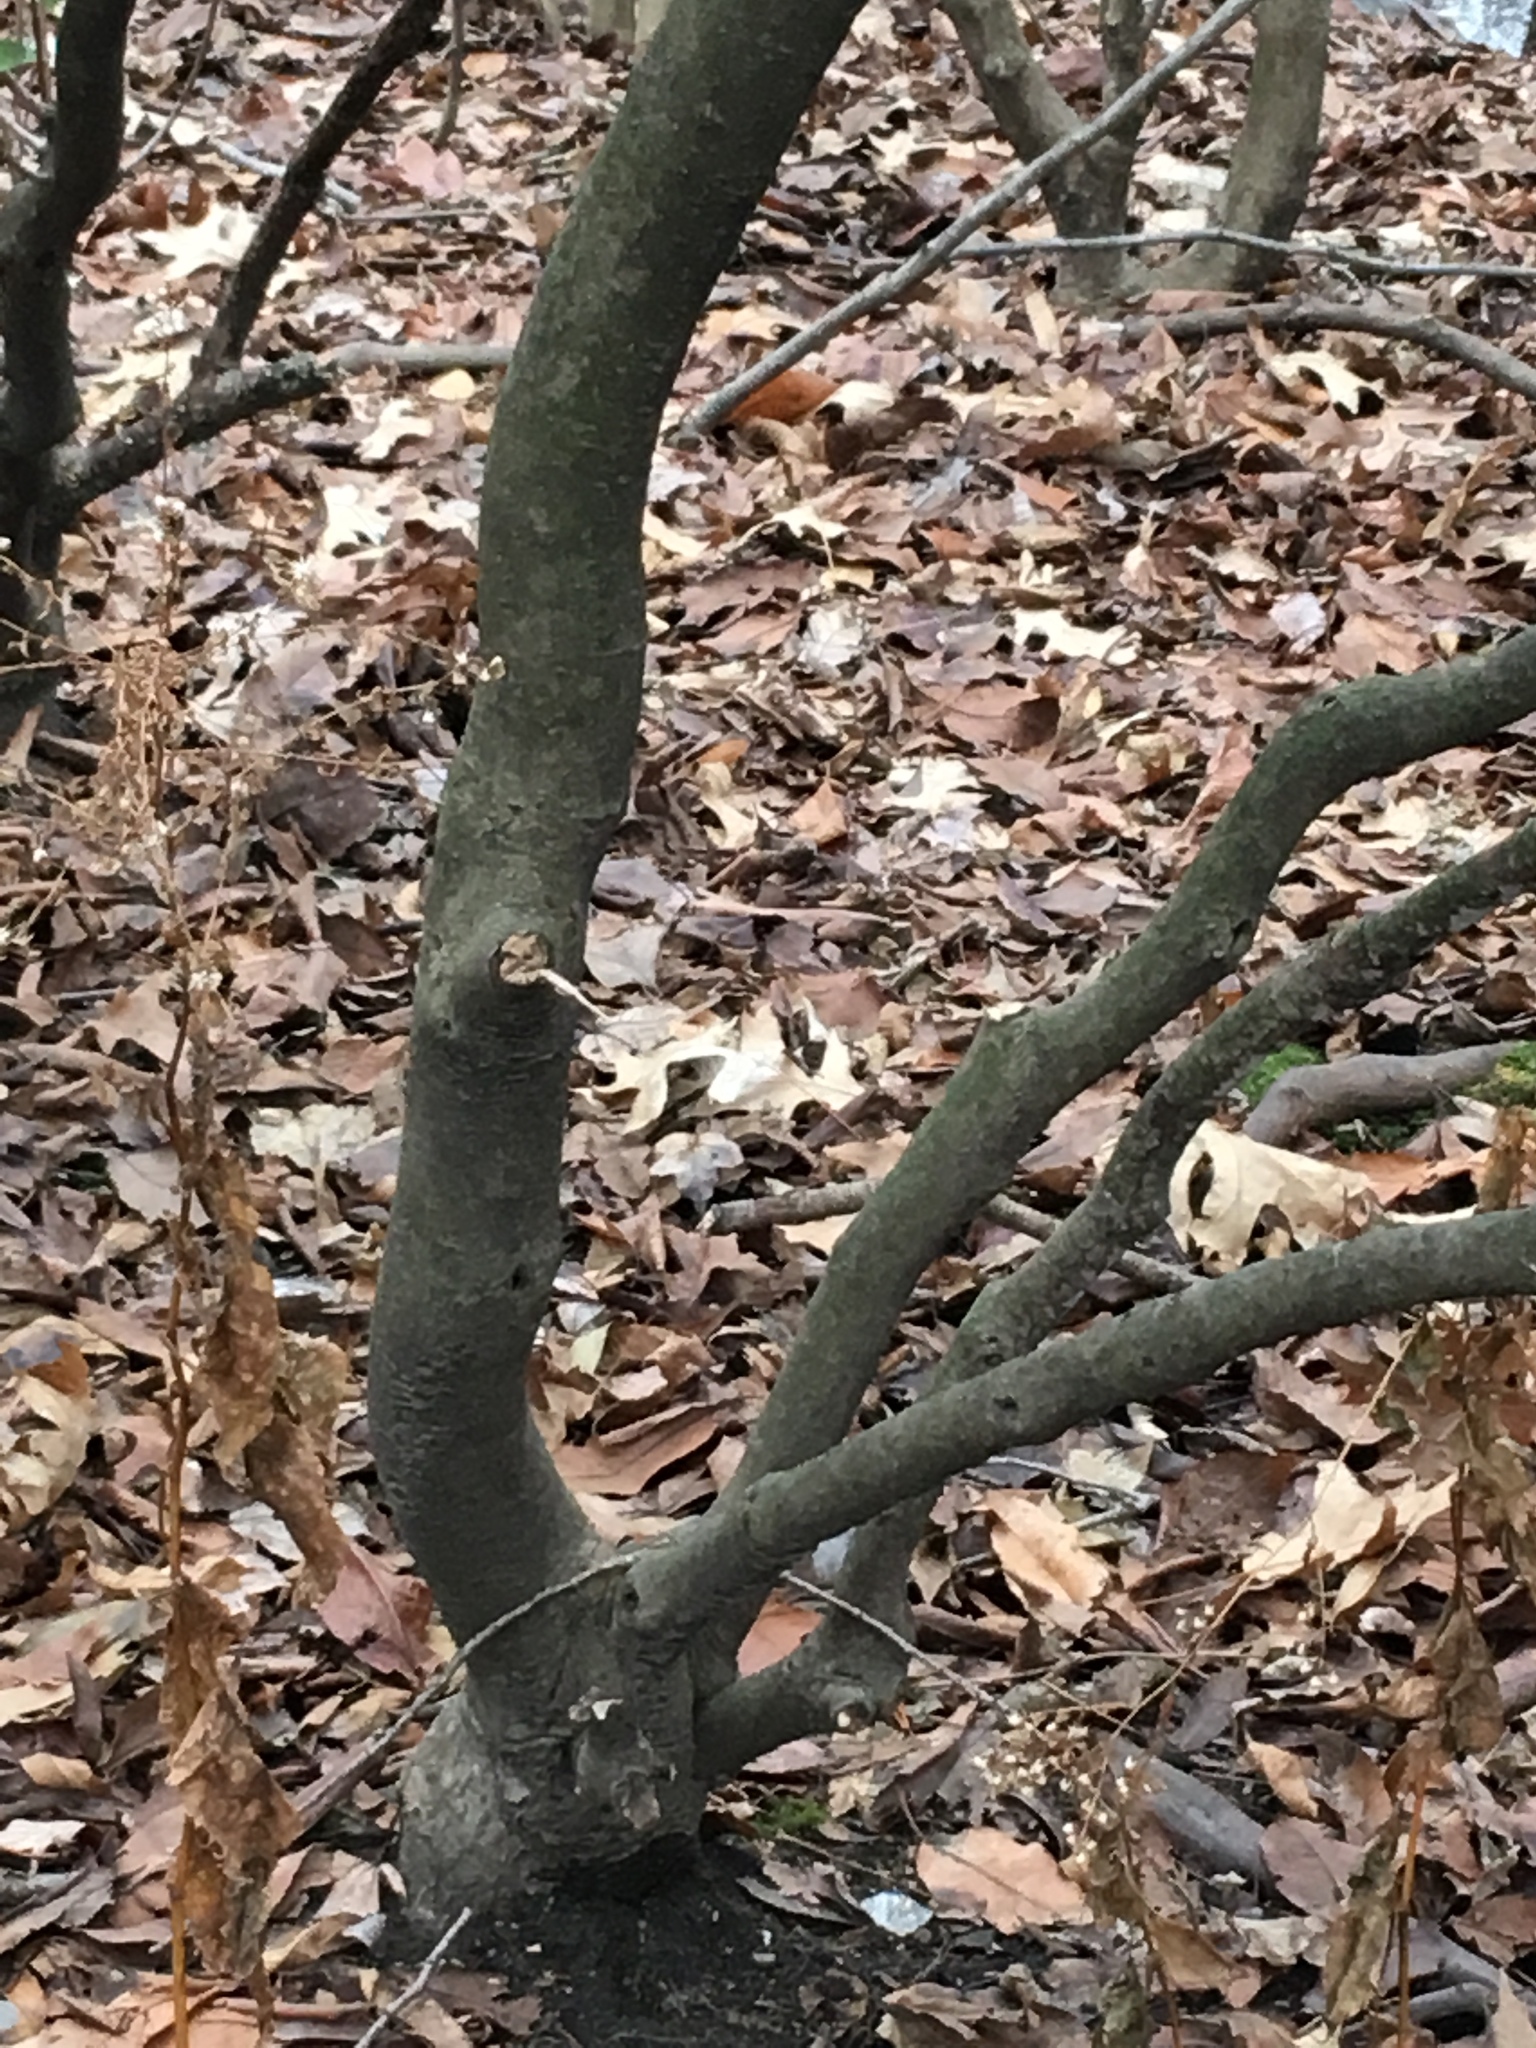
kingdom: Plantae
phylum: Tracheophyta
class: Magnoliopsida
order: Aquifoliales
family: Aquifoliaceae
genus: Ilex
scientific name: Ilex glabra
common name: Bitter gallberry
